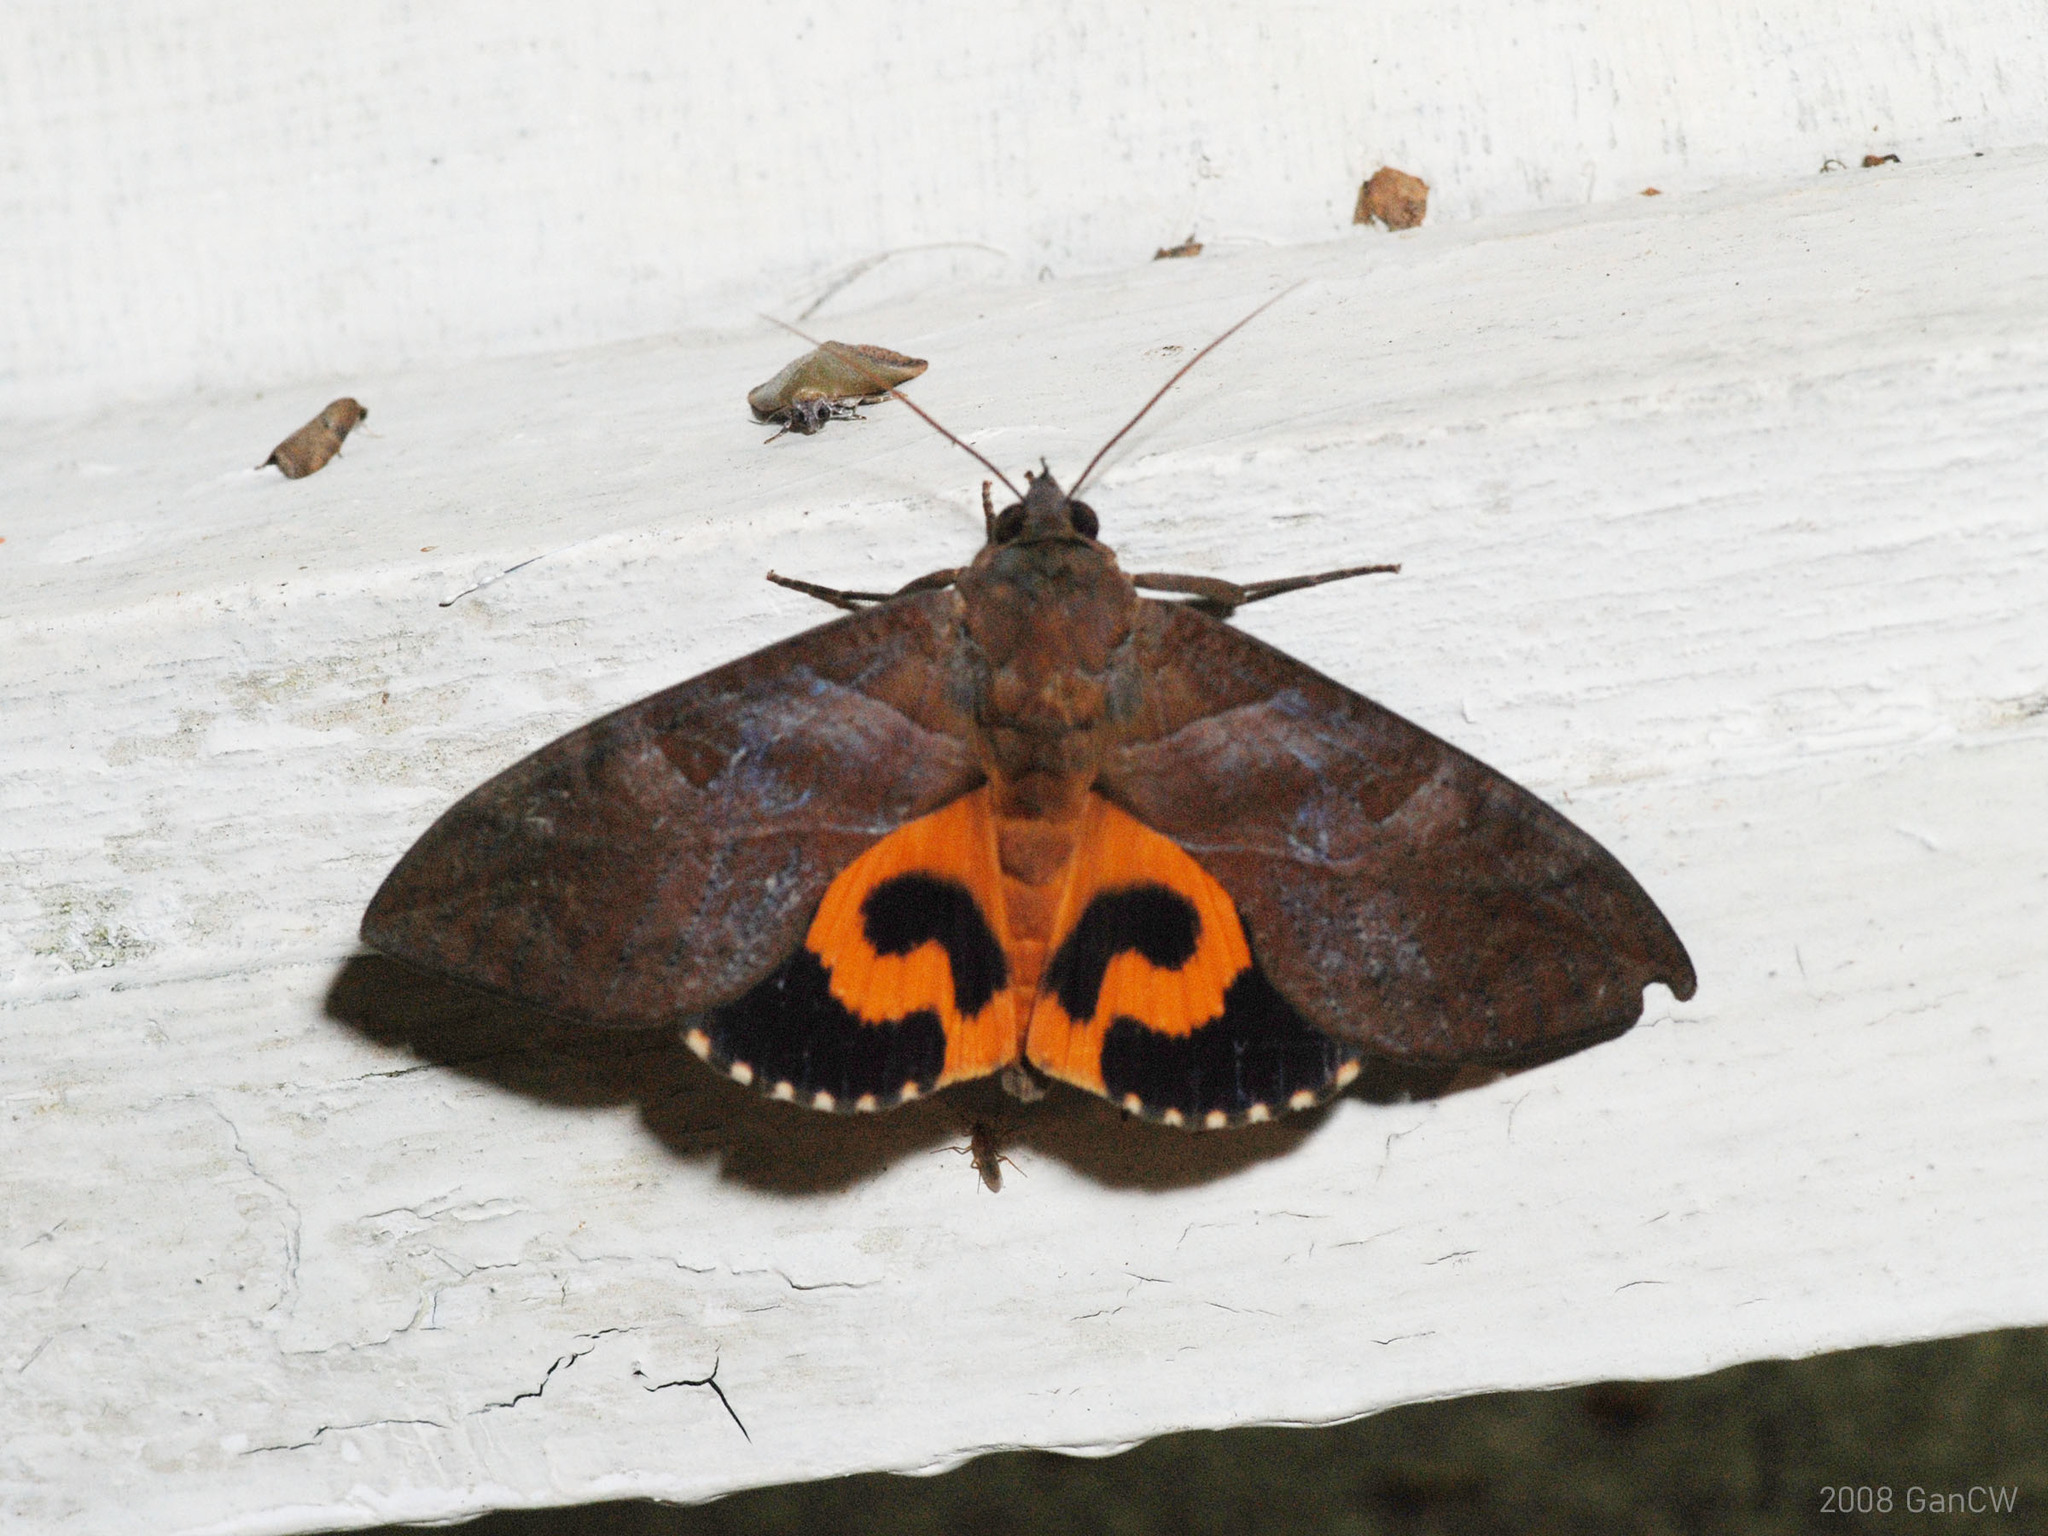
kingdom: Animalia
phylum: Arthropoda
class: Insecta
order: Lepidoptera
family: Erebidae
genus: Eudocima
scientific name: Eudocima phalonia
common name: Wasp
